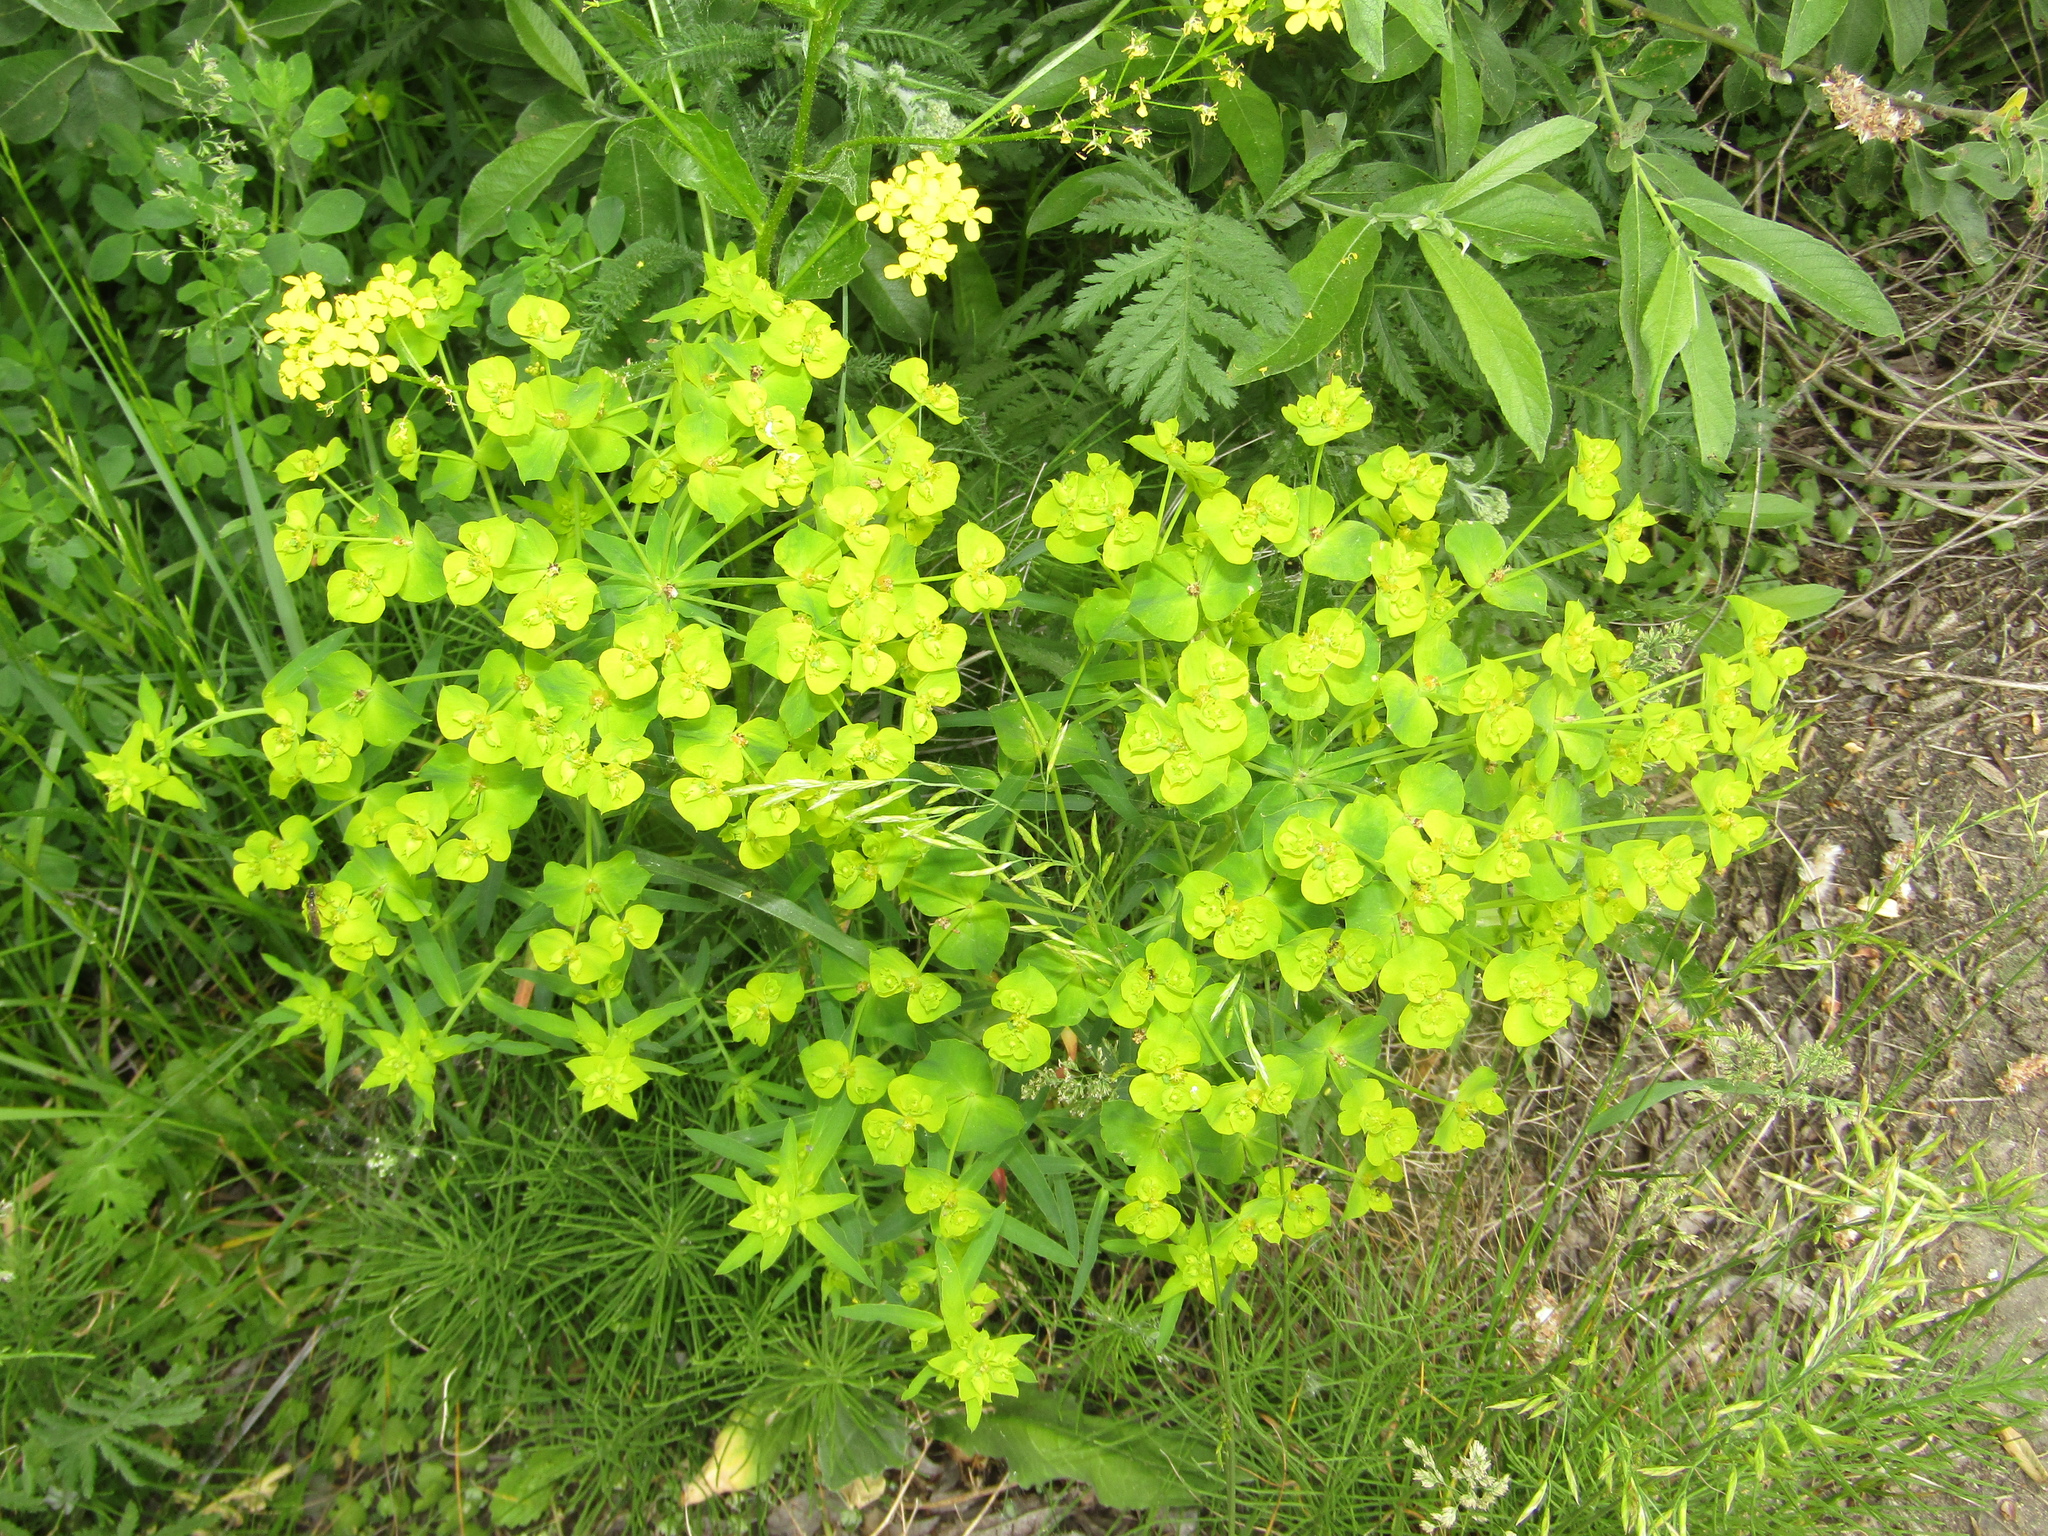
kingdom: Plantae
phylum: Tracheophyta
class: Magnoliopsida
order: Malpighiales
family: Euphorbiaceae
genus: Euphorbia
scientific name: Euphorbia virgata
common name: Leafy spurge
